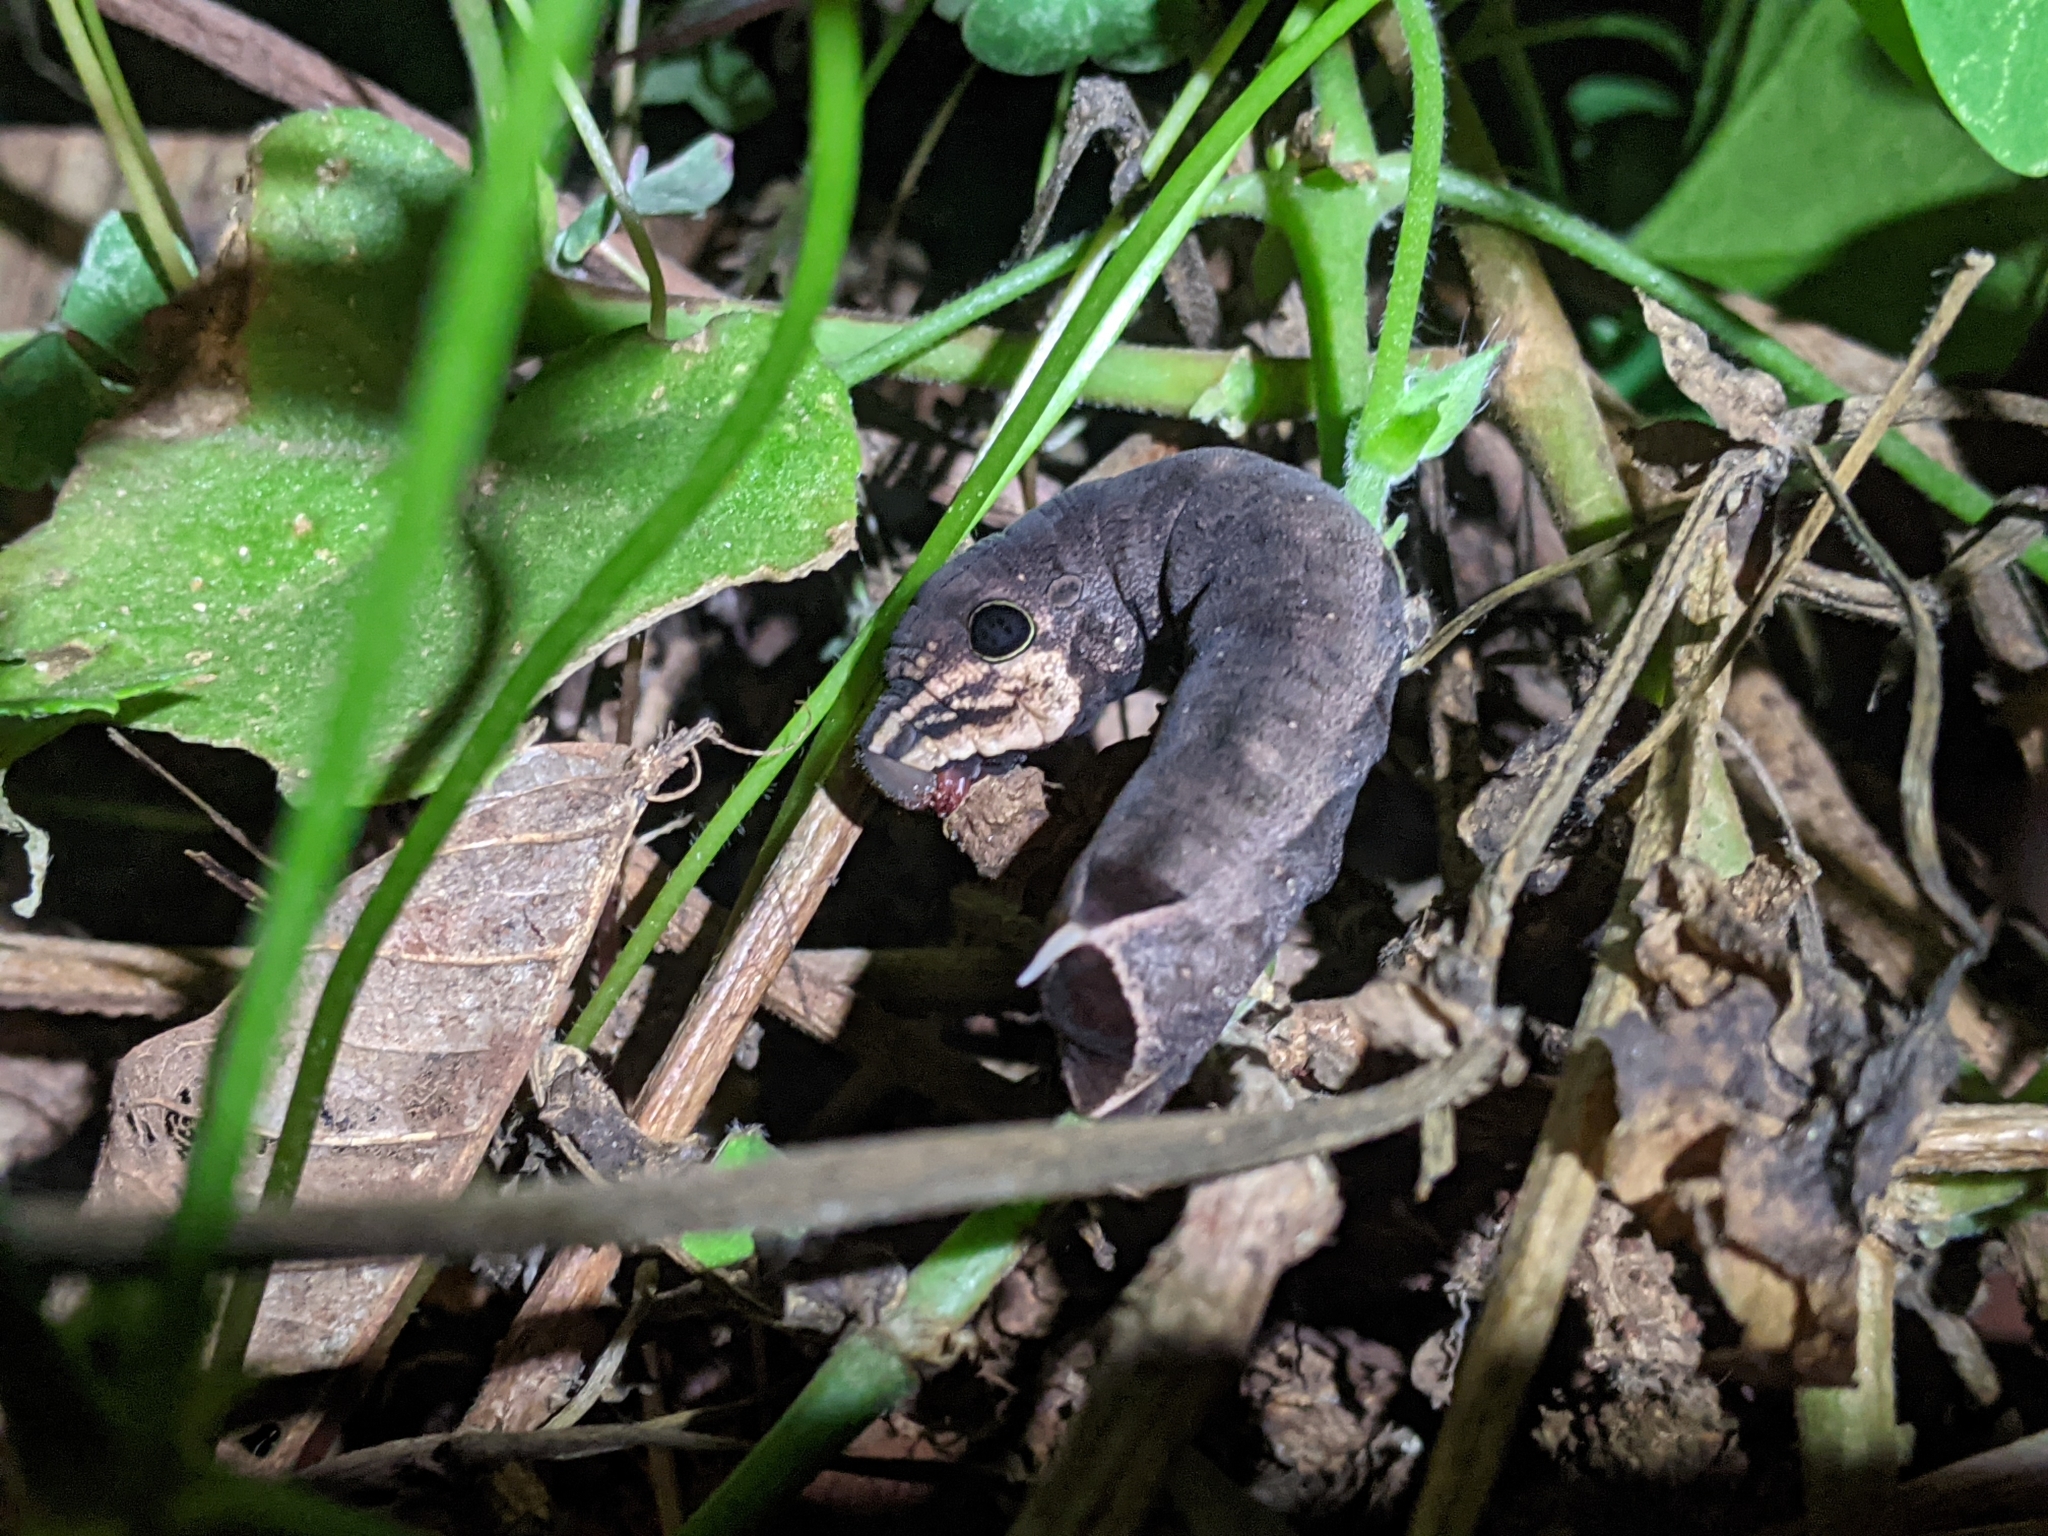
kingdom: Animalia
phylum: Arthropoda
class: Insecta
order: Lepidoptera
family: Sphingidae
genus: Hippotion
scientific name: Hippotion eson
